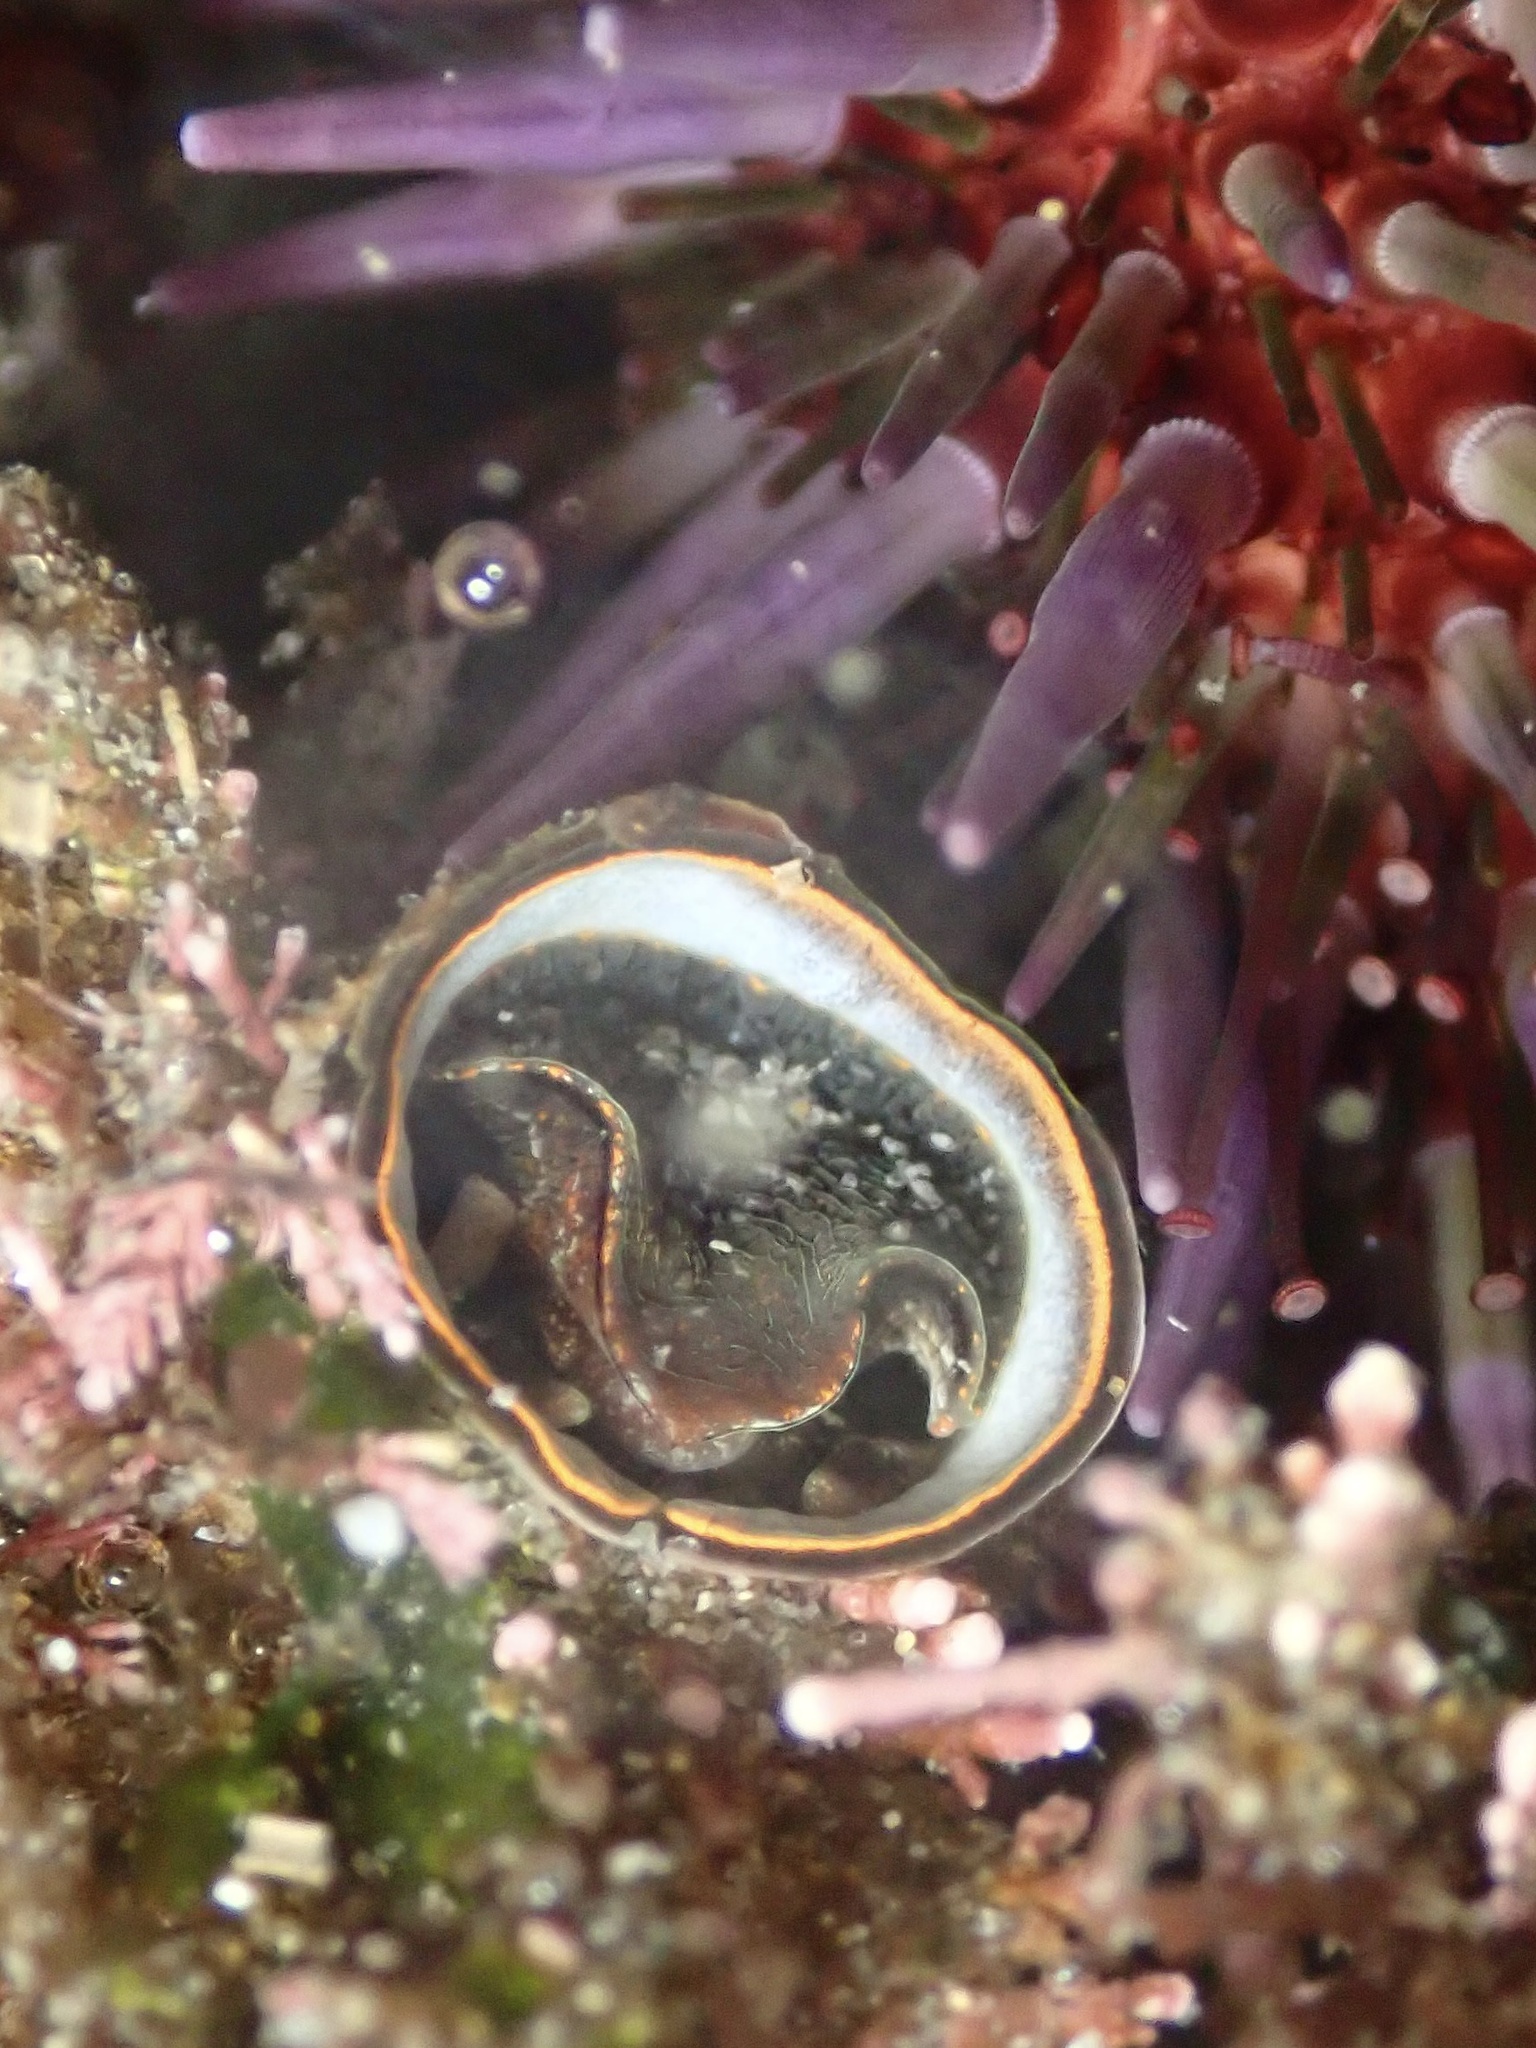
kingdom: Animalia
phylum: Mollusca
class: Gastropoda
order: Littorinimorpha
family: Vermetidae
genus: Thylacodes
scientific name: Thylacodes squamigerus
